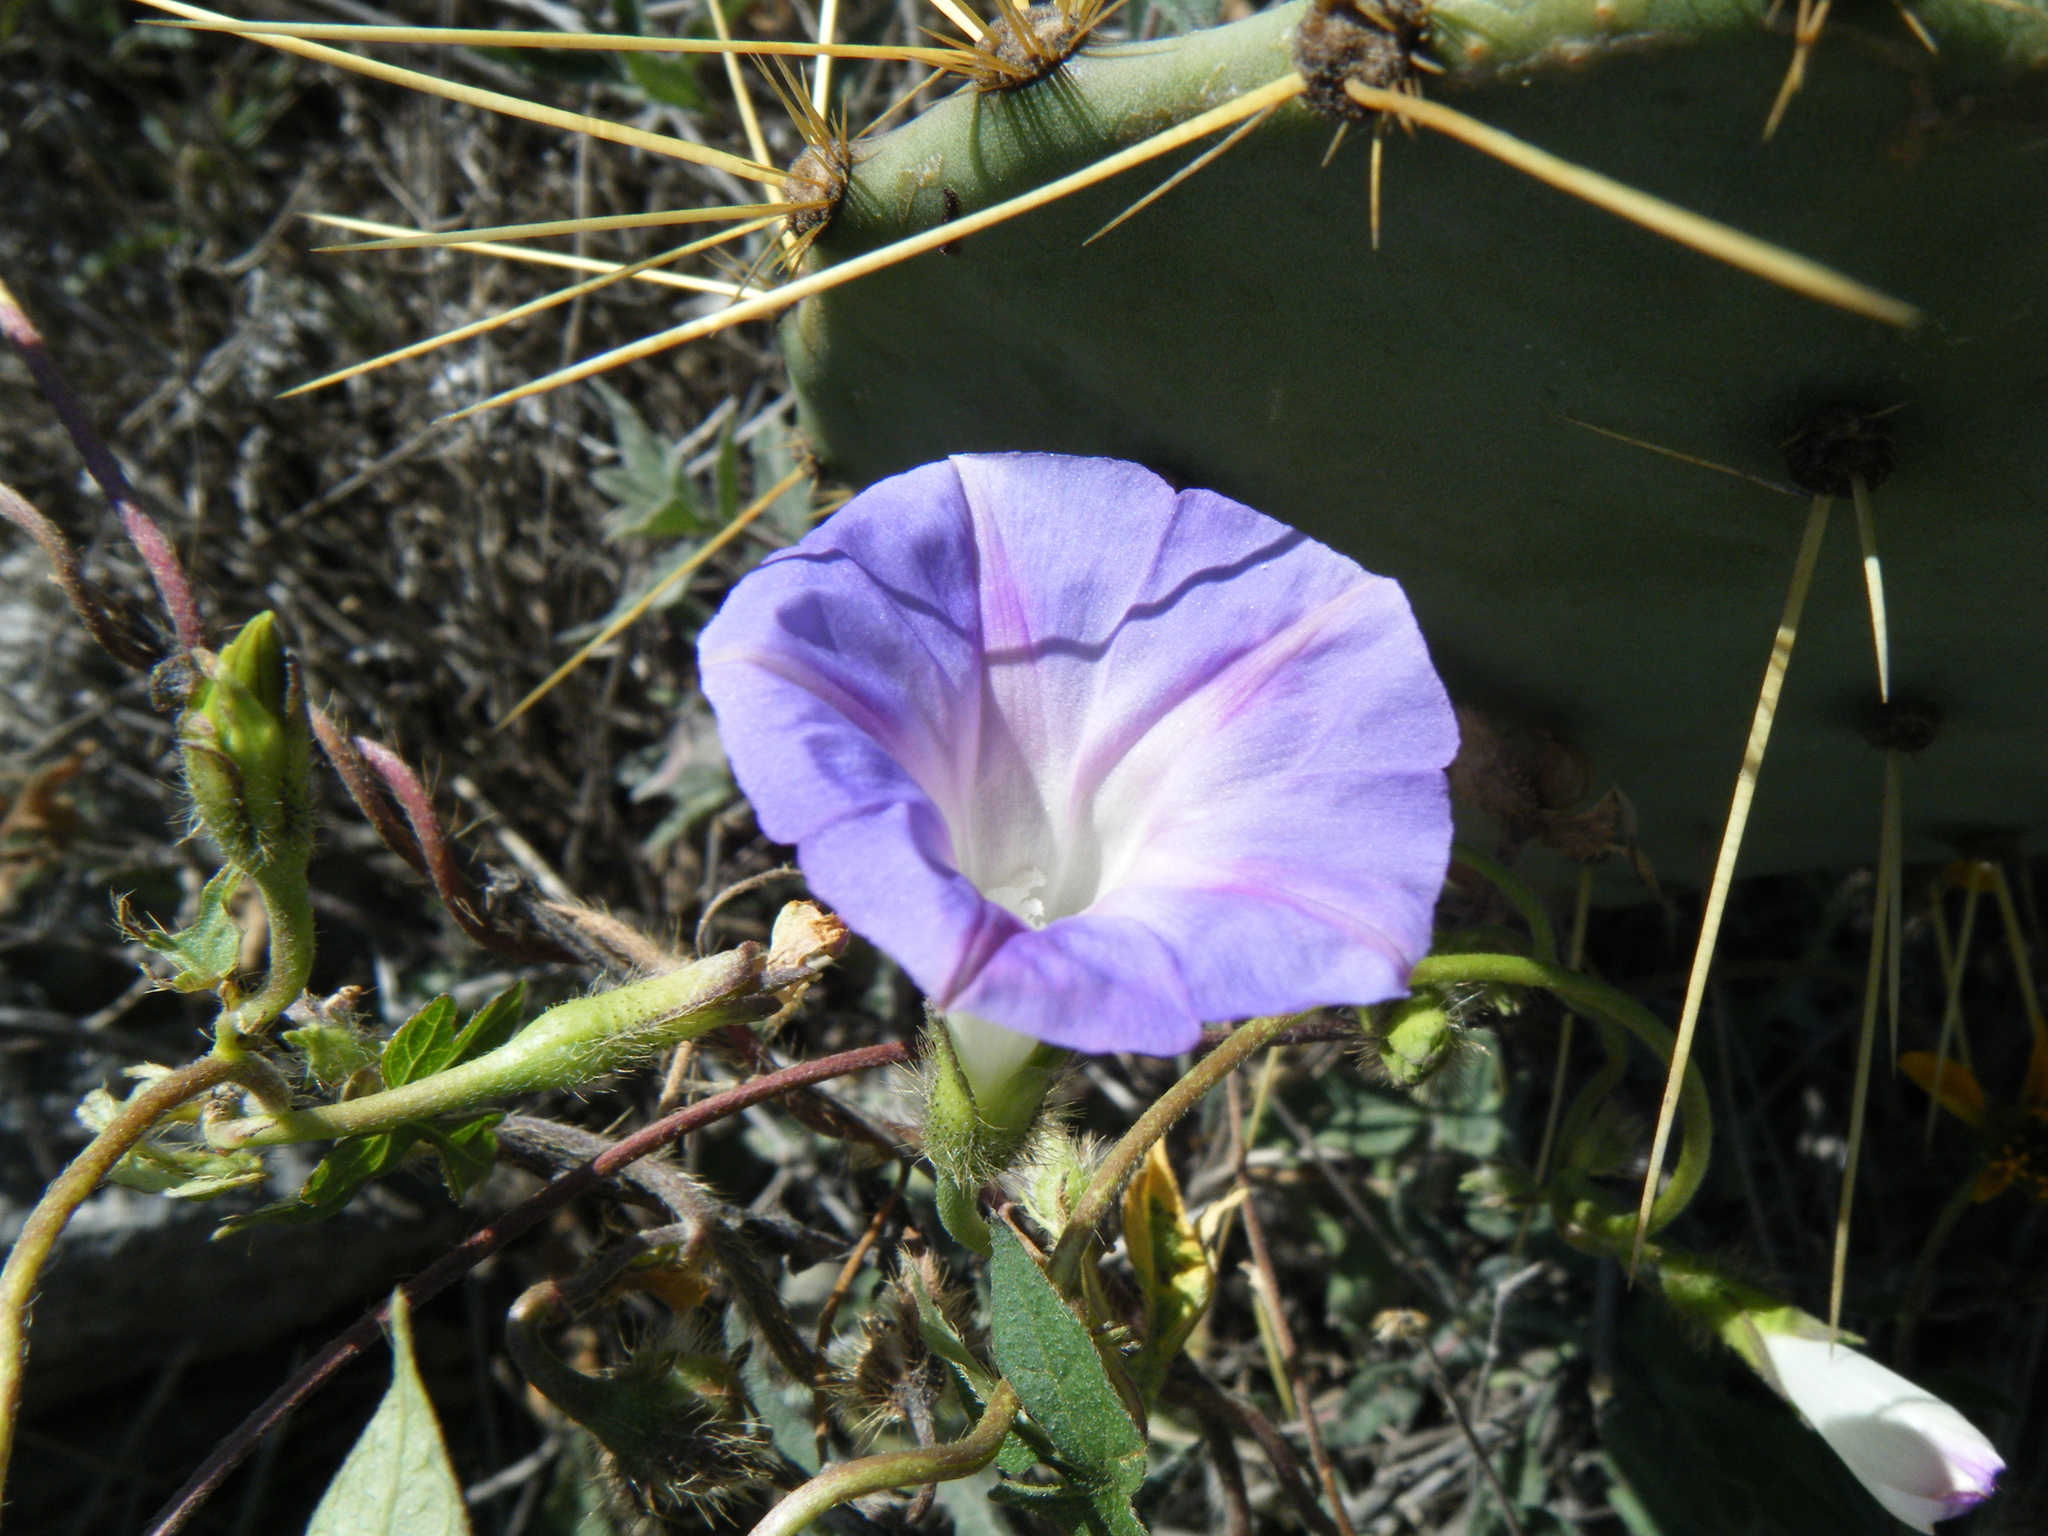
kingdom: Plantae
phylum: Tracheophyta
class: Magnoliopsida
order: Solanales
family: Convolvulaceae
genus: Ipomoea
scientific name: Ipomoea purpurea
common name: Common morning-glory
